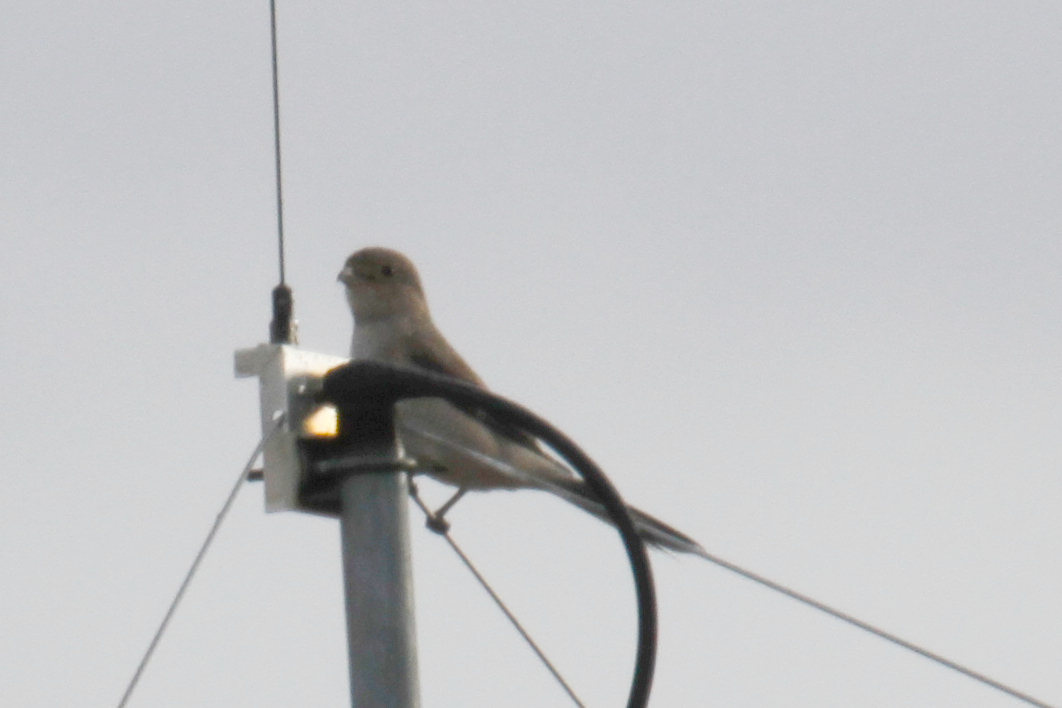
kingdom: Animalia
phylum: Chordata
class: Aves
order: Passeriformes
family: Laniidae
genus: Lanius
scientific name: Lanius borealis
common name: Northern shrike
